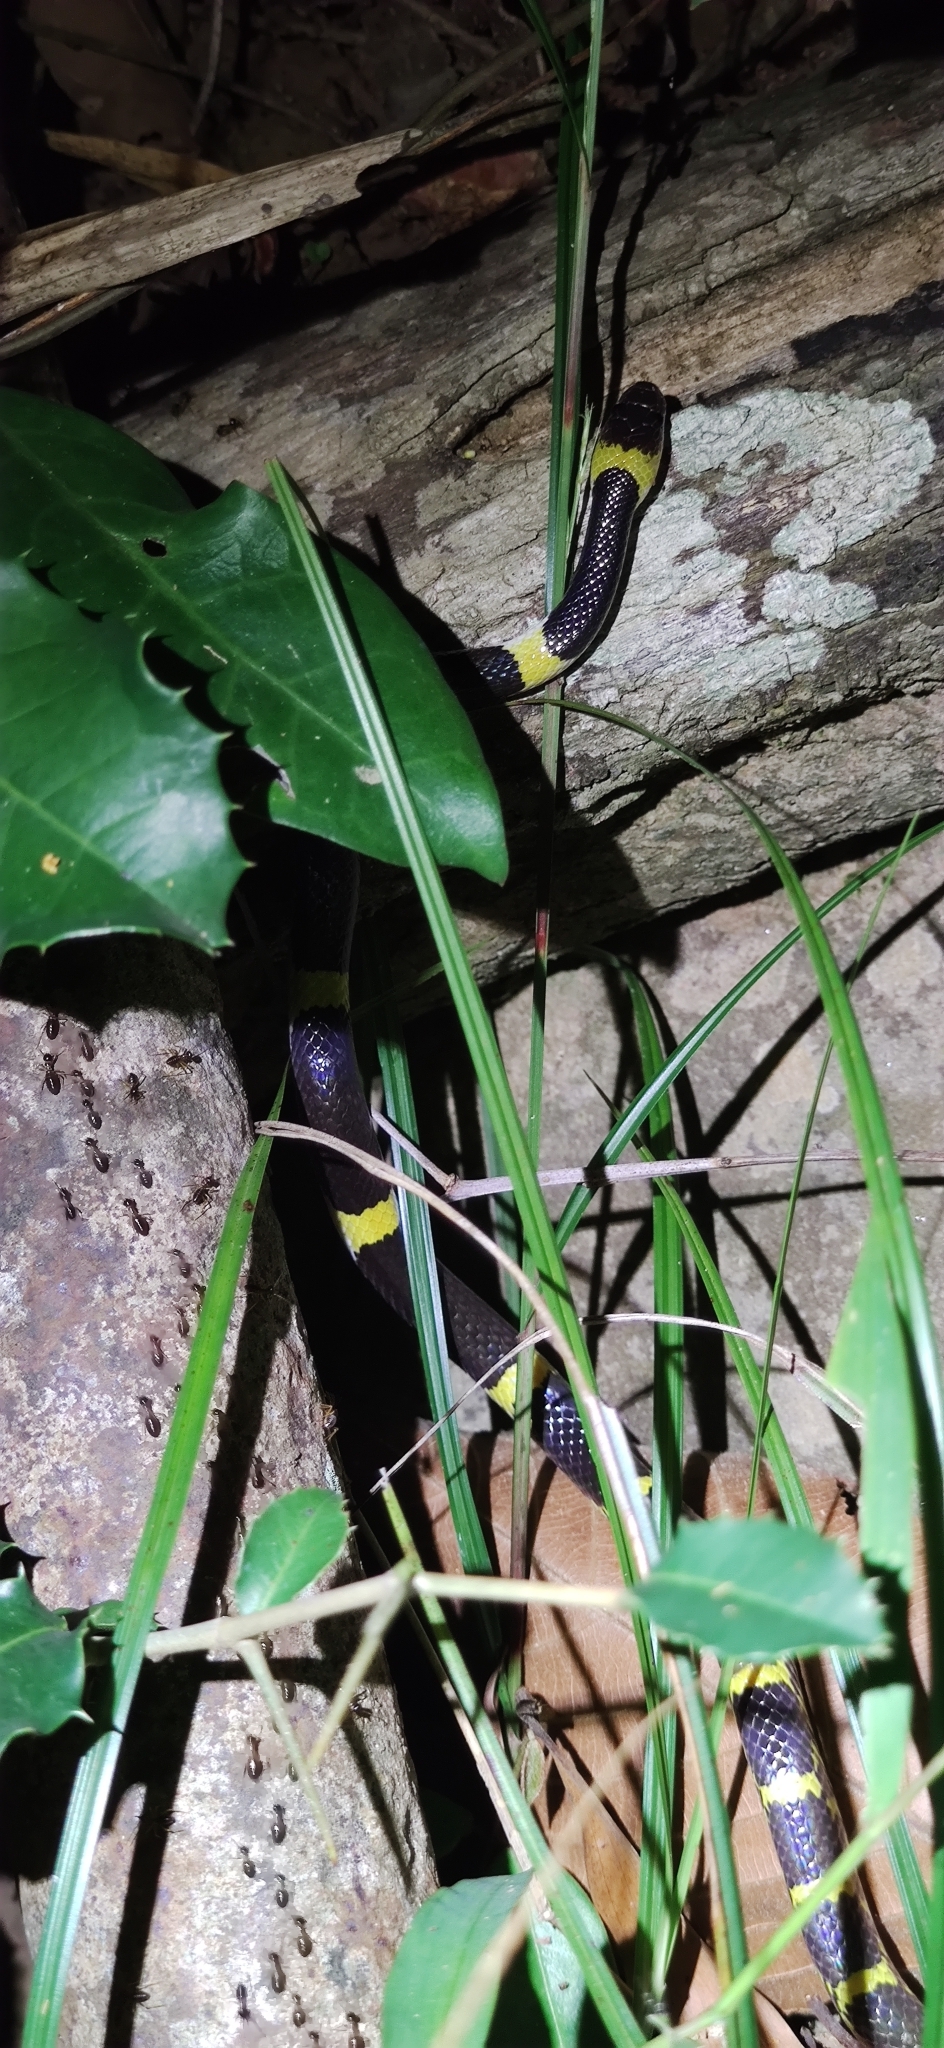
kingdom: Animalia
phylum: Chordata
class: Squamata
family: Colubridae
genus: Lycodon
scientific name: Lycodon laoensis
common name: Laotian wolf snake
